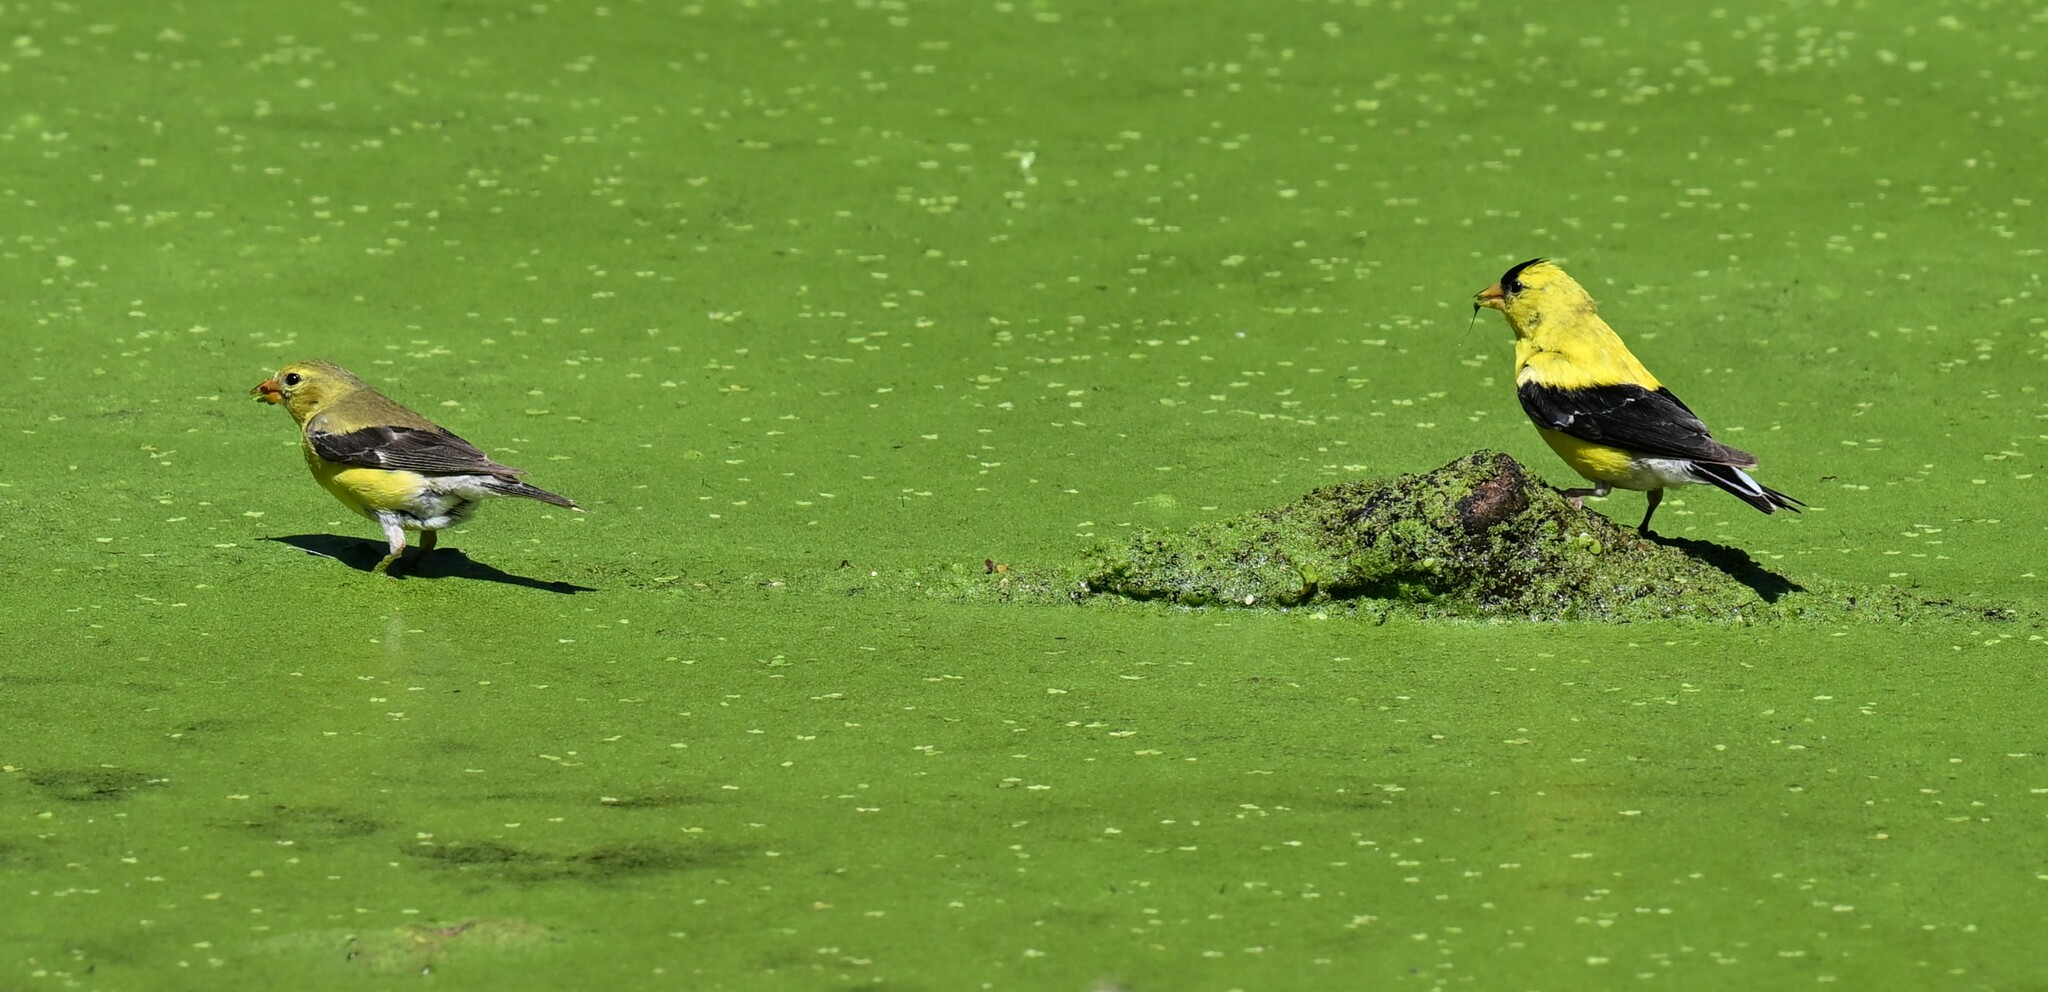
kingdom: Animalia
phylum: Chordata
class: Aves
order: Passeriformes
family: Fringillidae
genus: Spinus
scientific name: Spinus tristis
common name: American goldfinch
